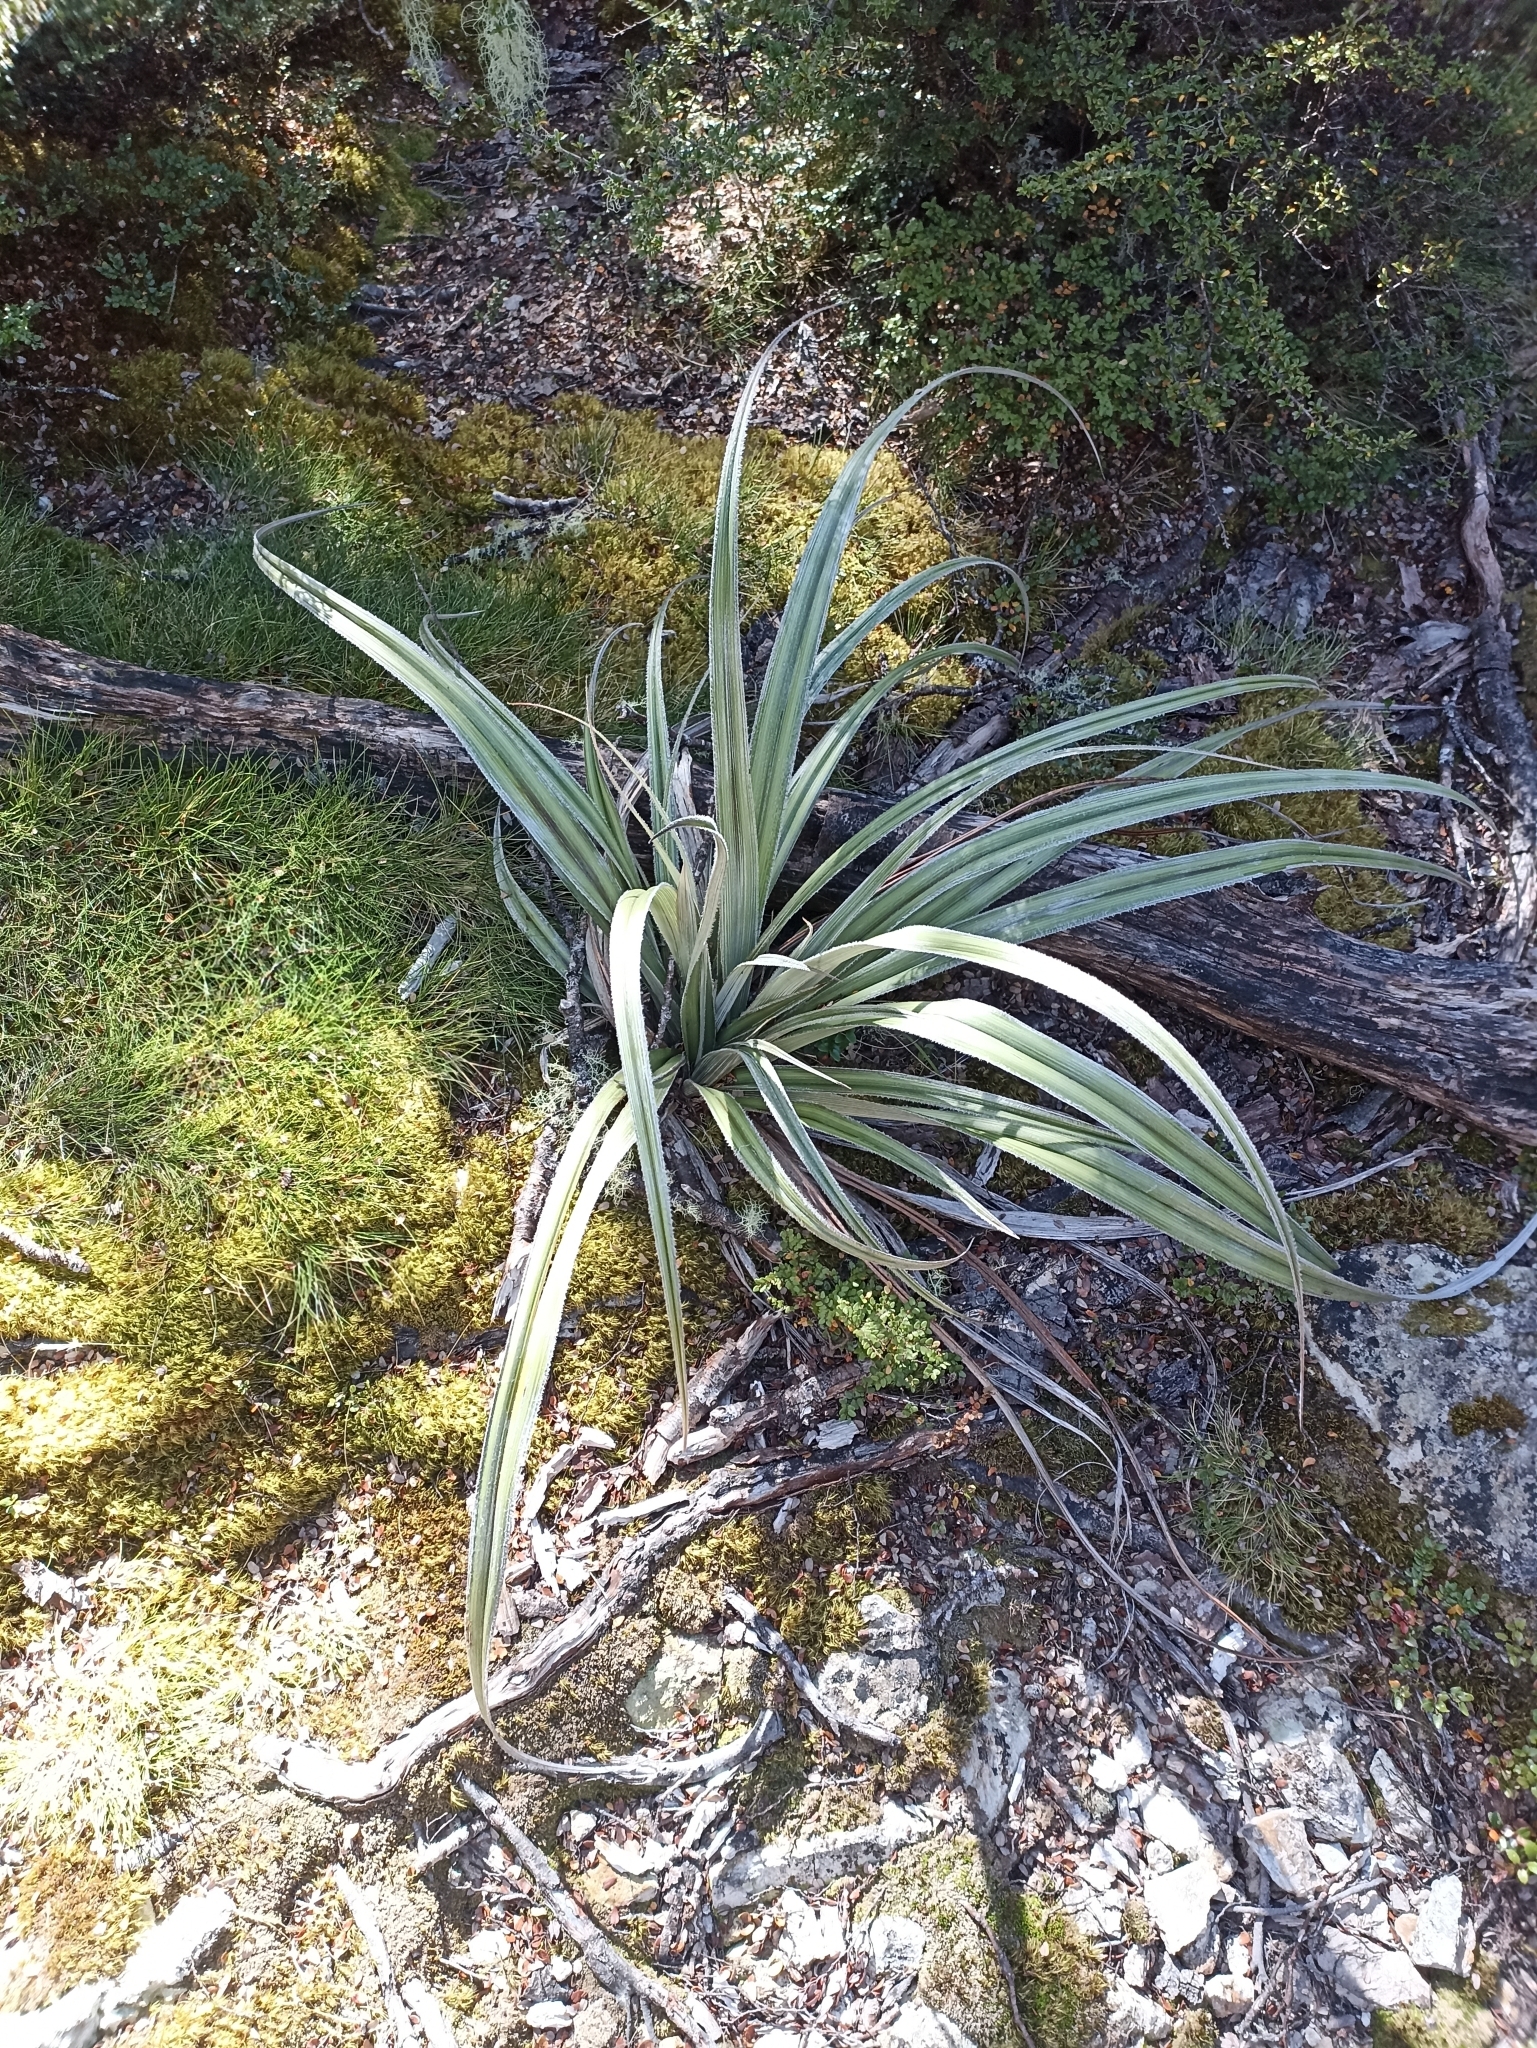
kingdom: Plantae
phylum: Tracheophyta
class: Liliopsida
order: Asparagales
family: Asteliaceae
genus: Astelia
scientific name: Astelia nervosa
